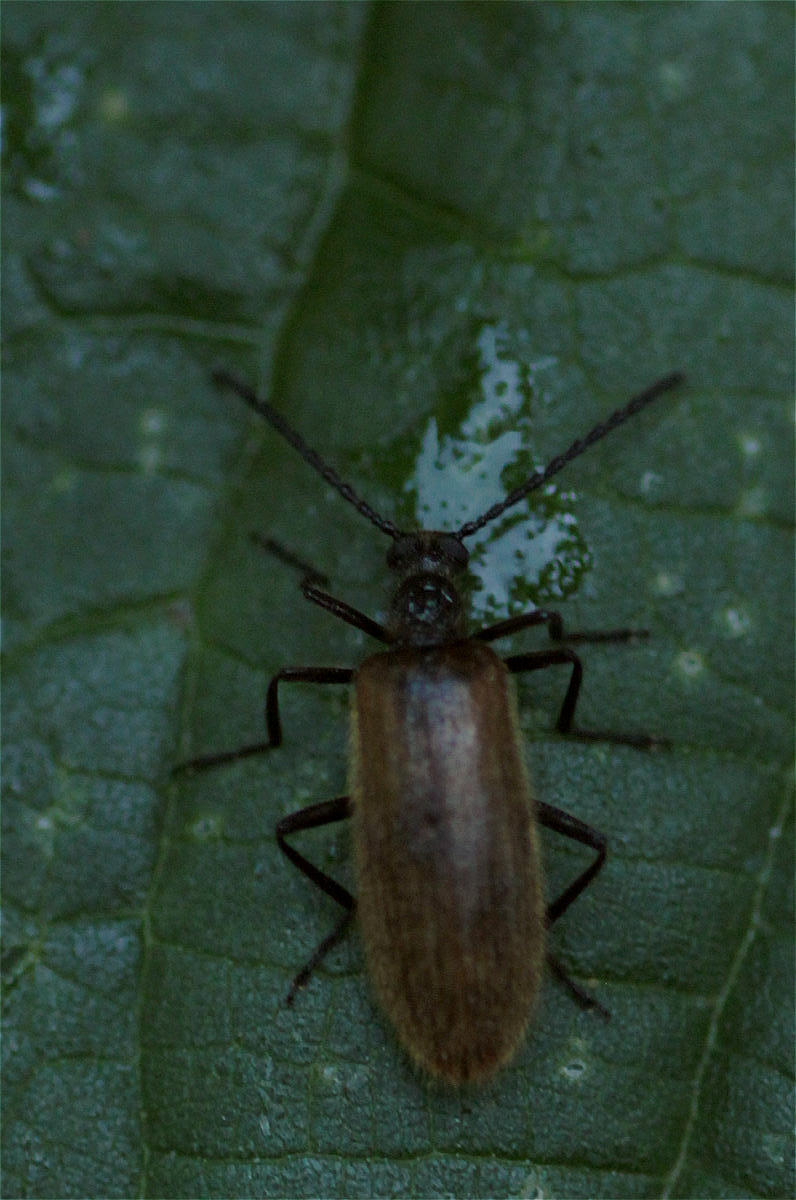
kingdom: Animalia
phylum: Arthropoda
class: Insecta
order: Coleoptera
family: Tenebrionidae
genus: Lagria
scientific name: Lagria hirta
